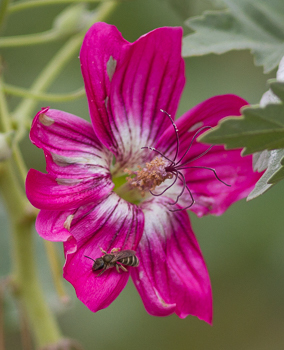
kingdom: Animalia
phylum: Arthropoda
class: Insecta
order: Hymenoptera
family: Halictidae
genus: Halictus
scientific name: Halictus tripartitus
